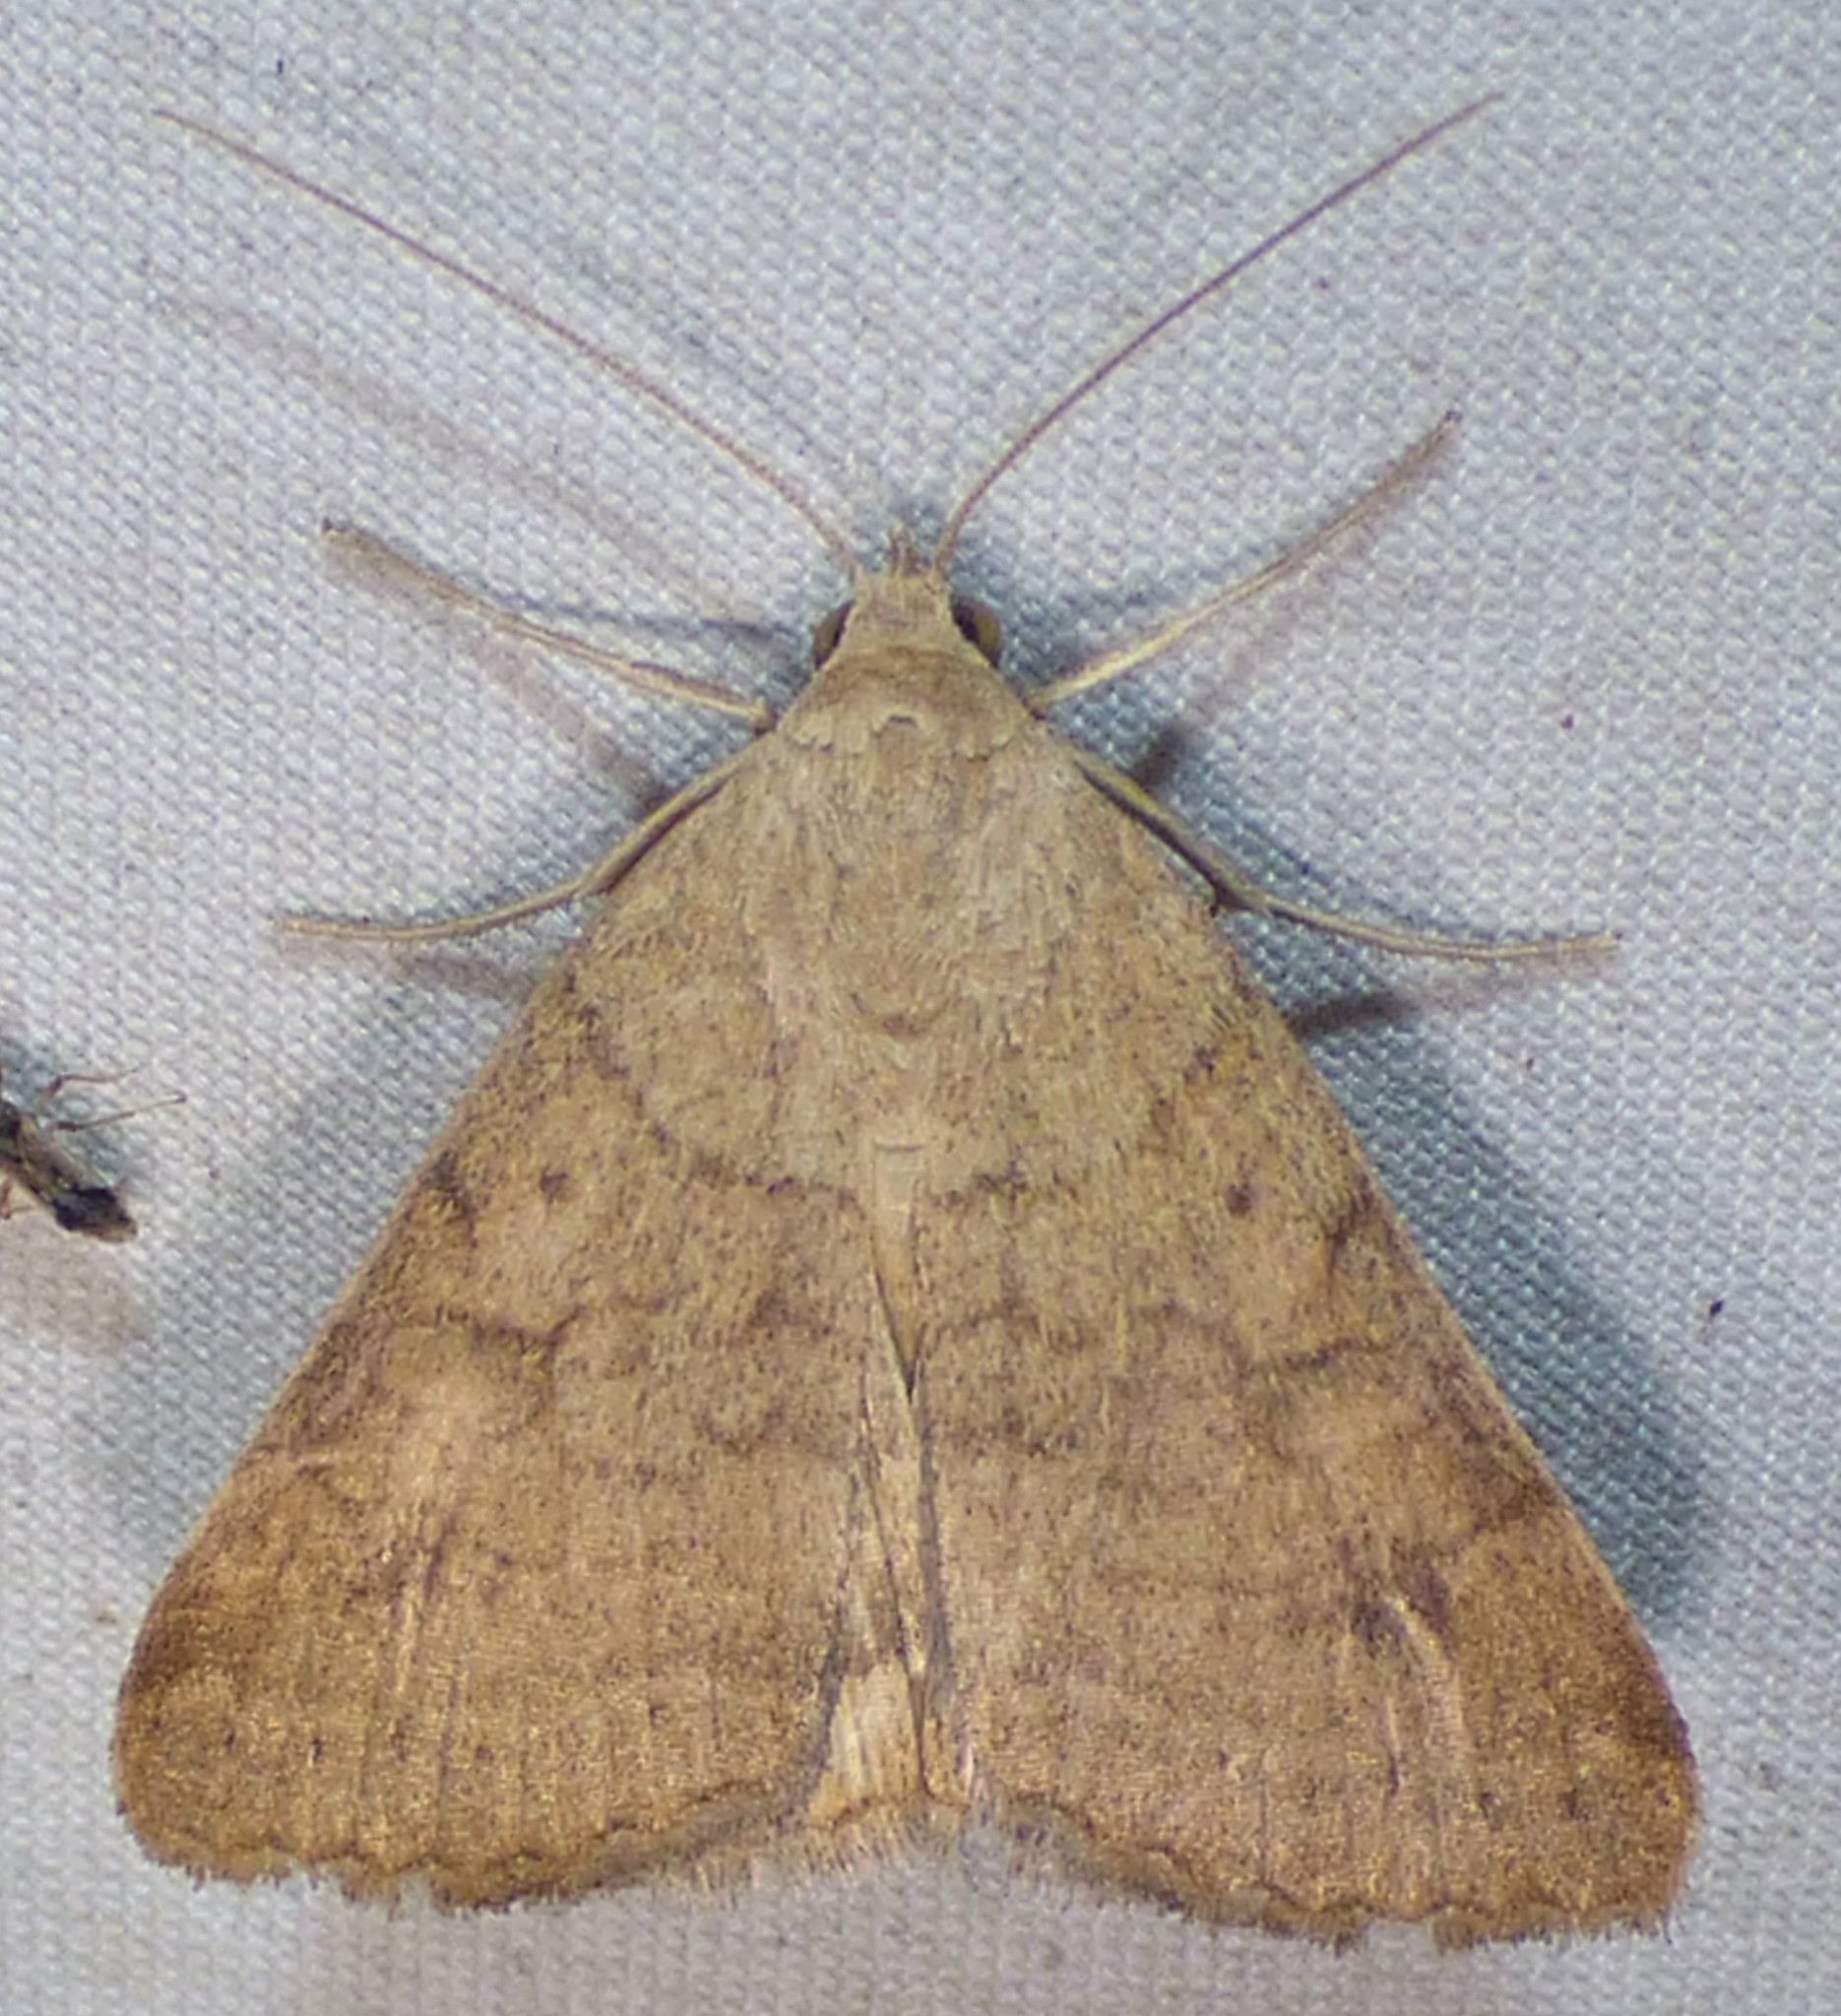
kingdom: Animalia
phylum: Arthropoda
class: Insecta
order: Lepidoptera
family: Erebidae
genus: Caenurgia
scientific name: Caenurgia chloropha
